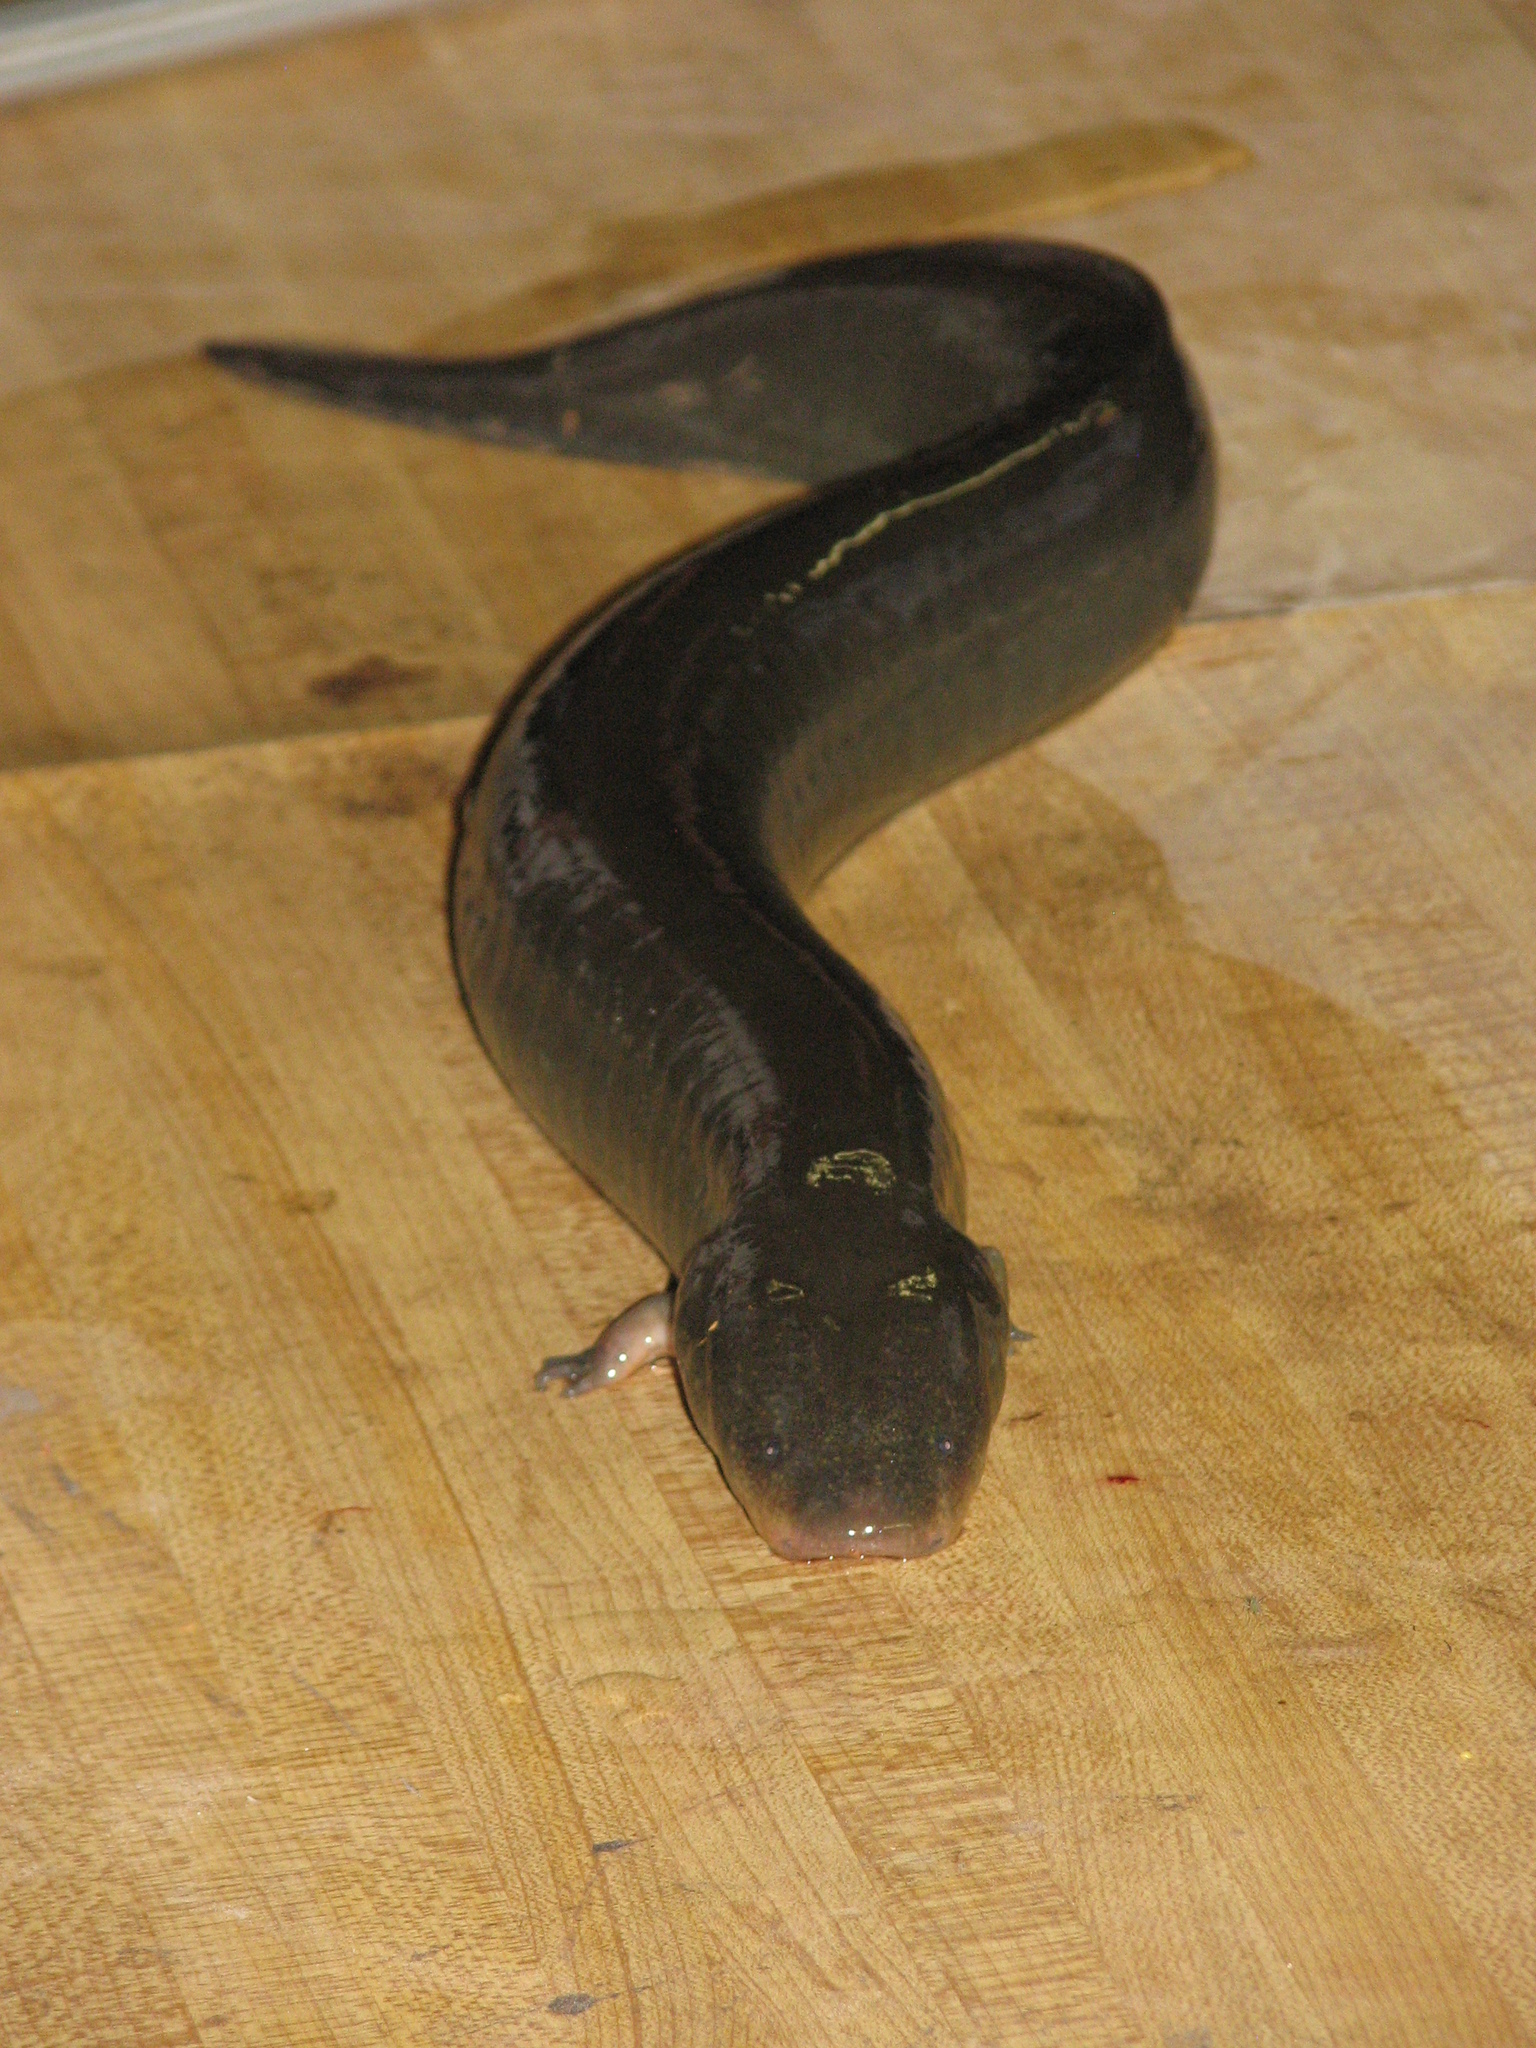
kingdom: Animalia
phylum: Chordata
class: Amphibia
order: Caudata
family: Sirenidae
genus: Siren
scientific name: Siren intermedia
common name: Lesser siren
